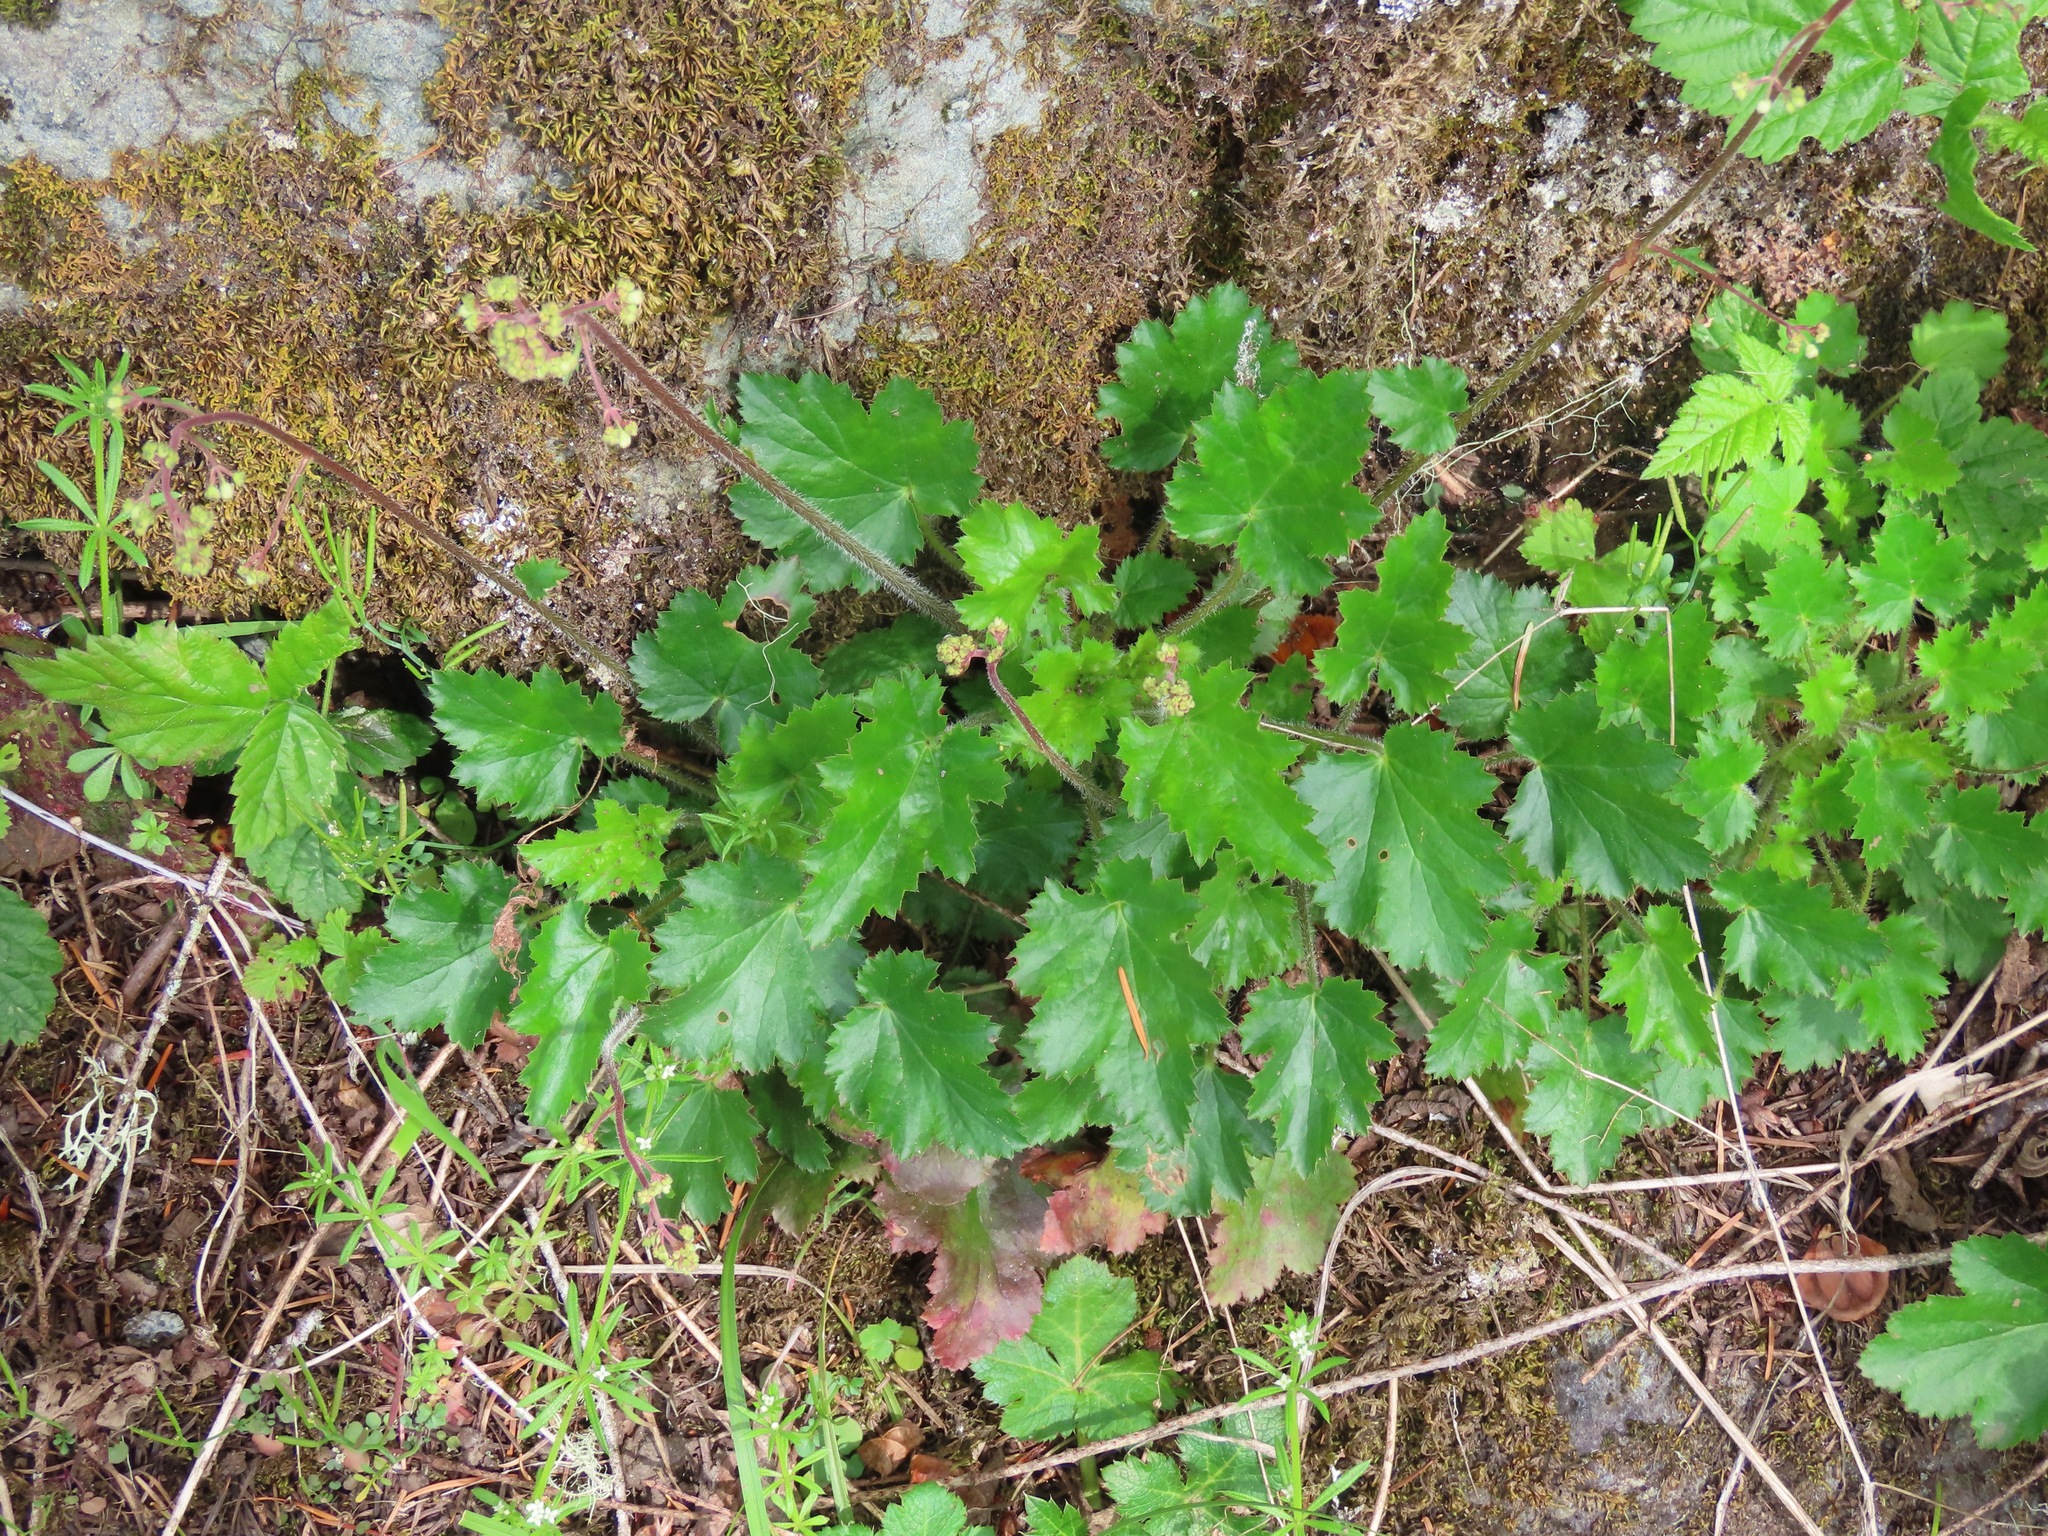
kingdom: Plantae
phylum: Tracheophyta
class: Magnoliopsida
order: Saxifragales
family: Saxifragaceae
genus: Heuchera
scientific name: Heuchera micrantha
